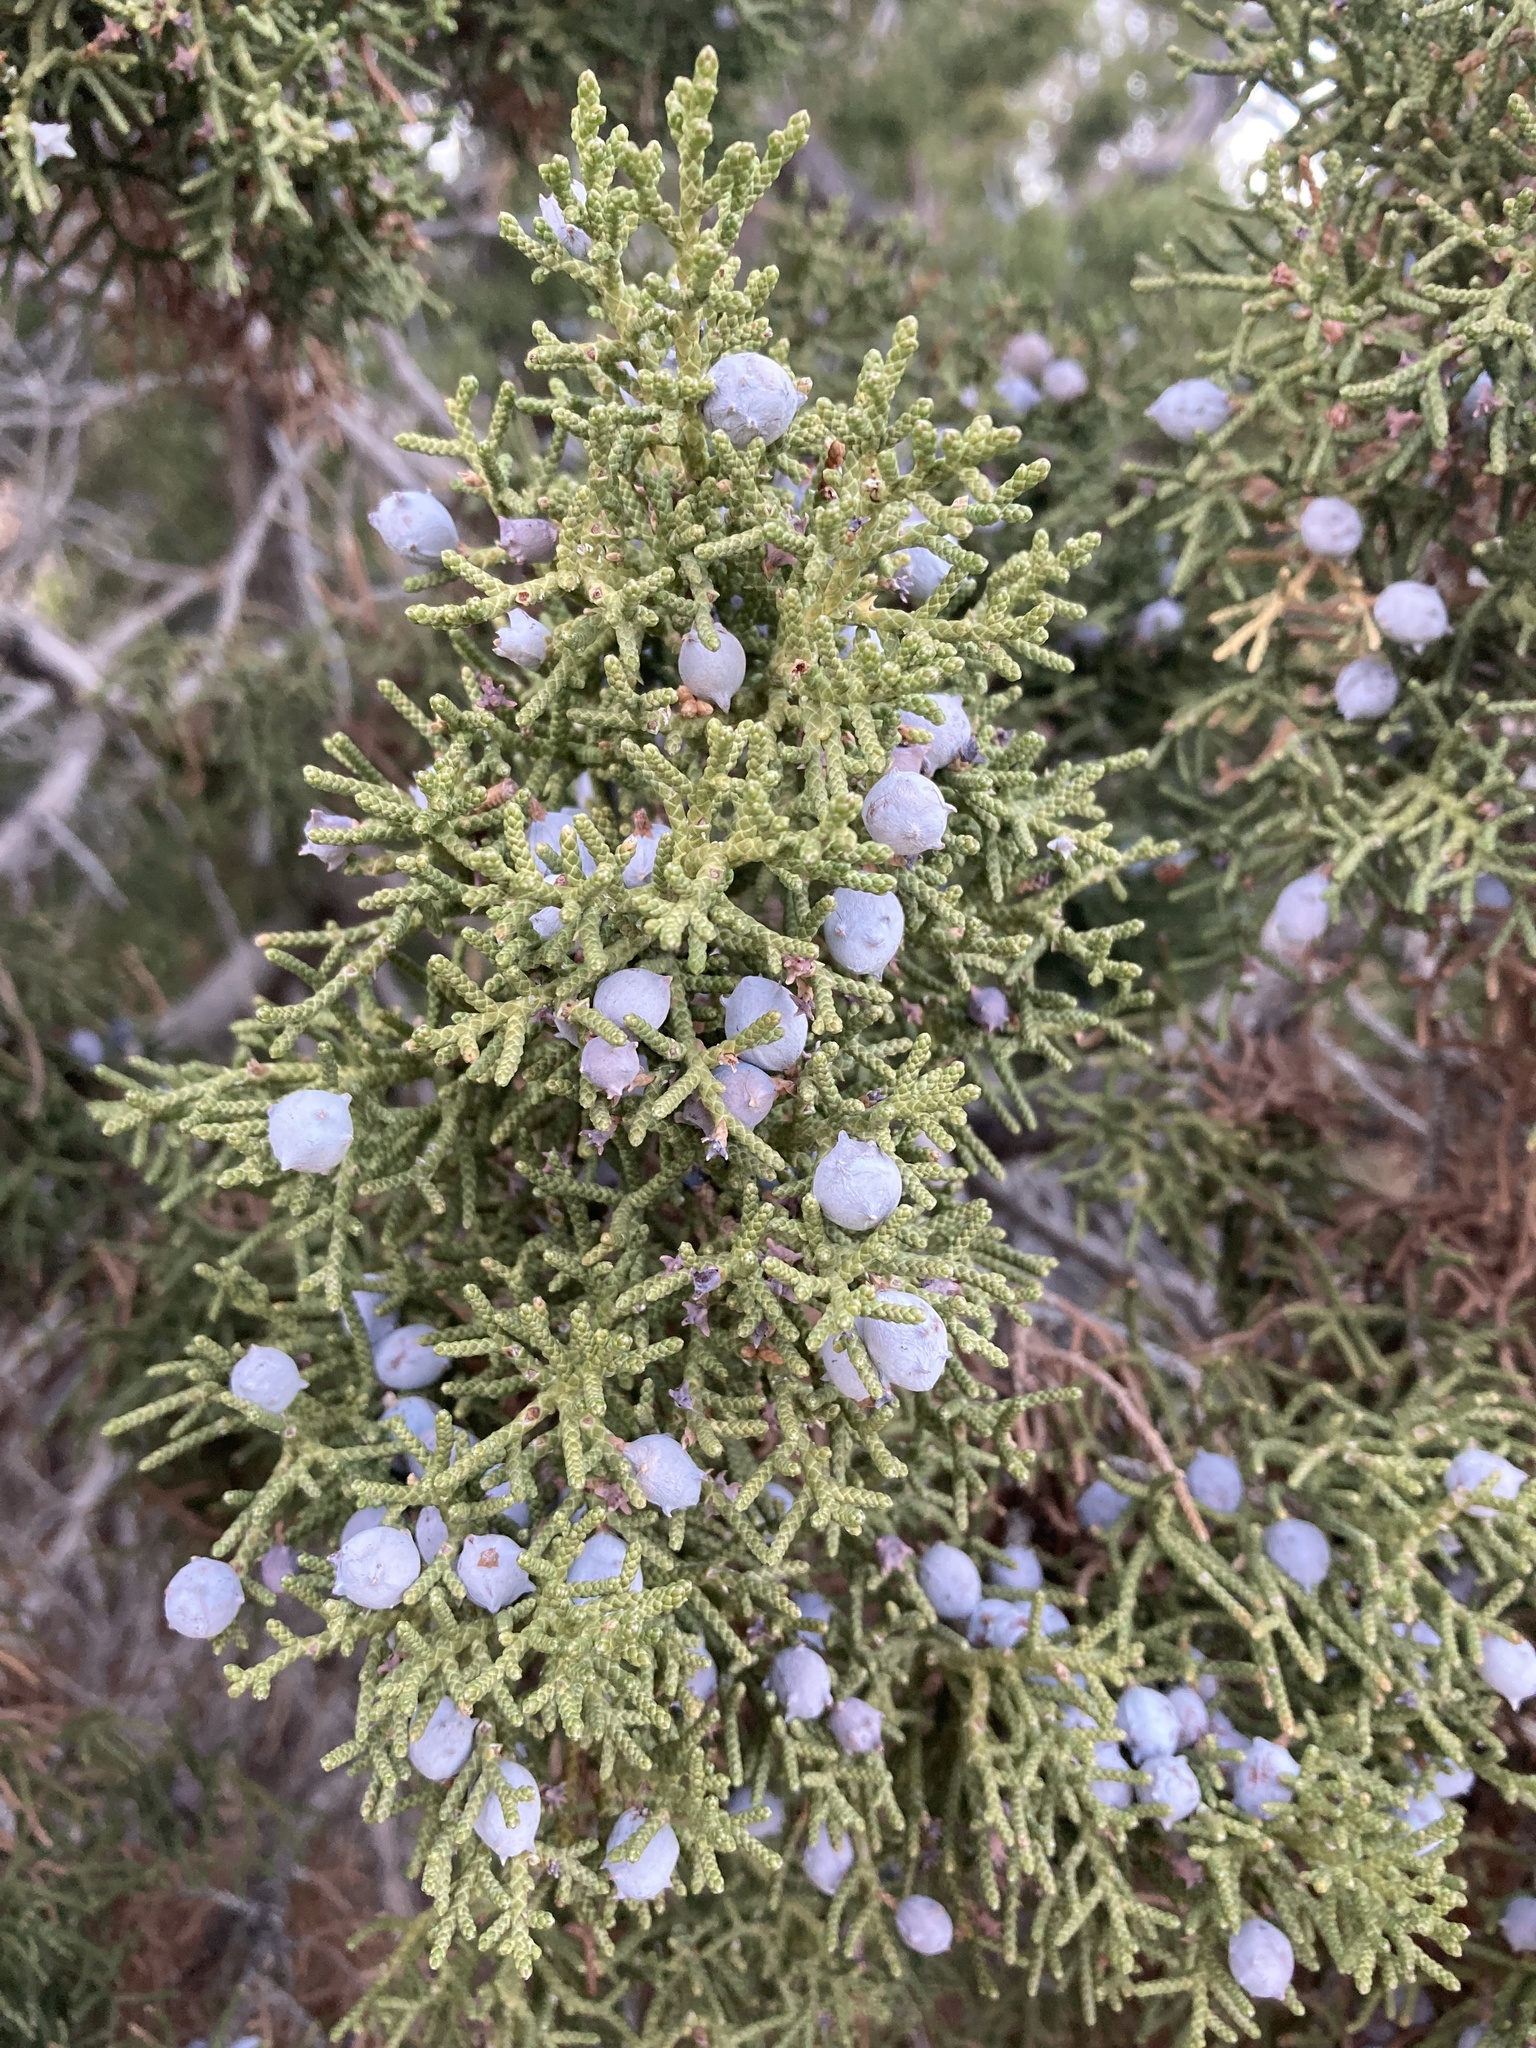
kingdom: Plantae
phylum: Tracheophyta
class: Pinopsida
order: Pinales
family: Cupressaceae
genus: Juniperus
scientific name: Juniperus californica
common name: California juniper
